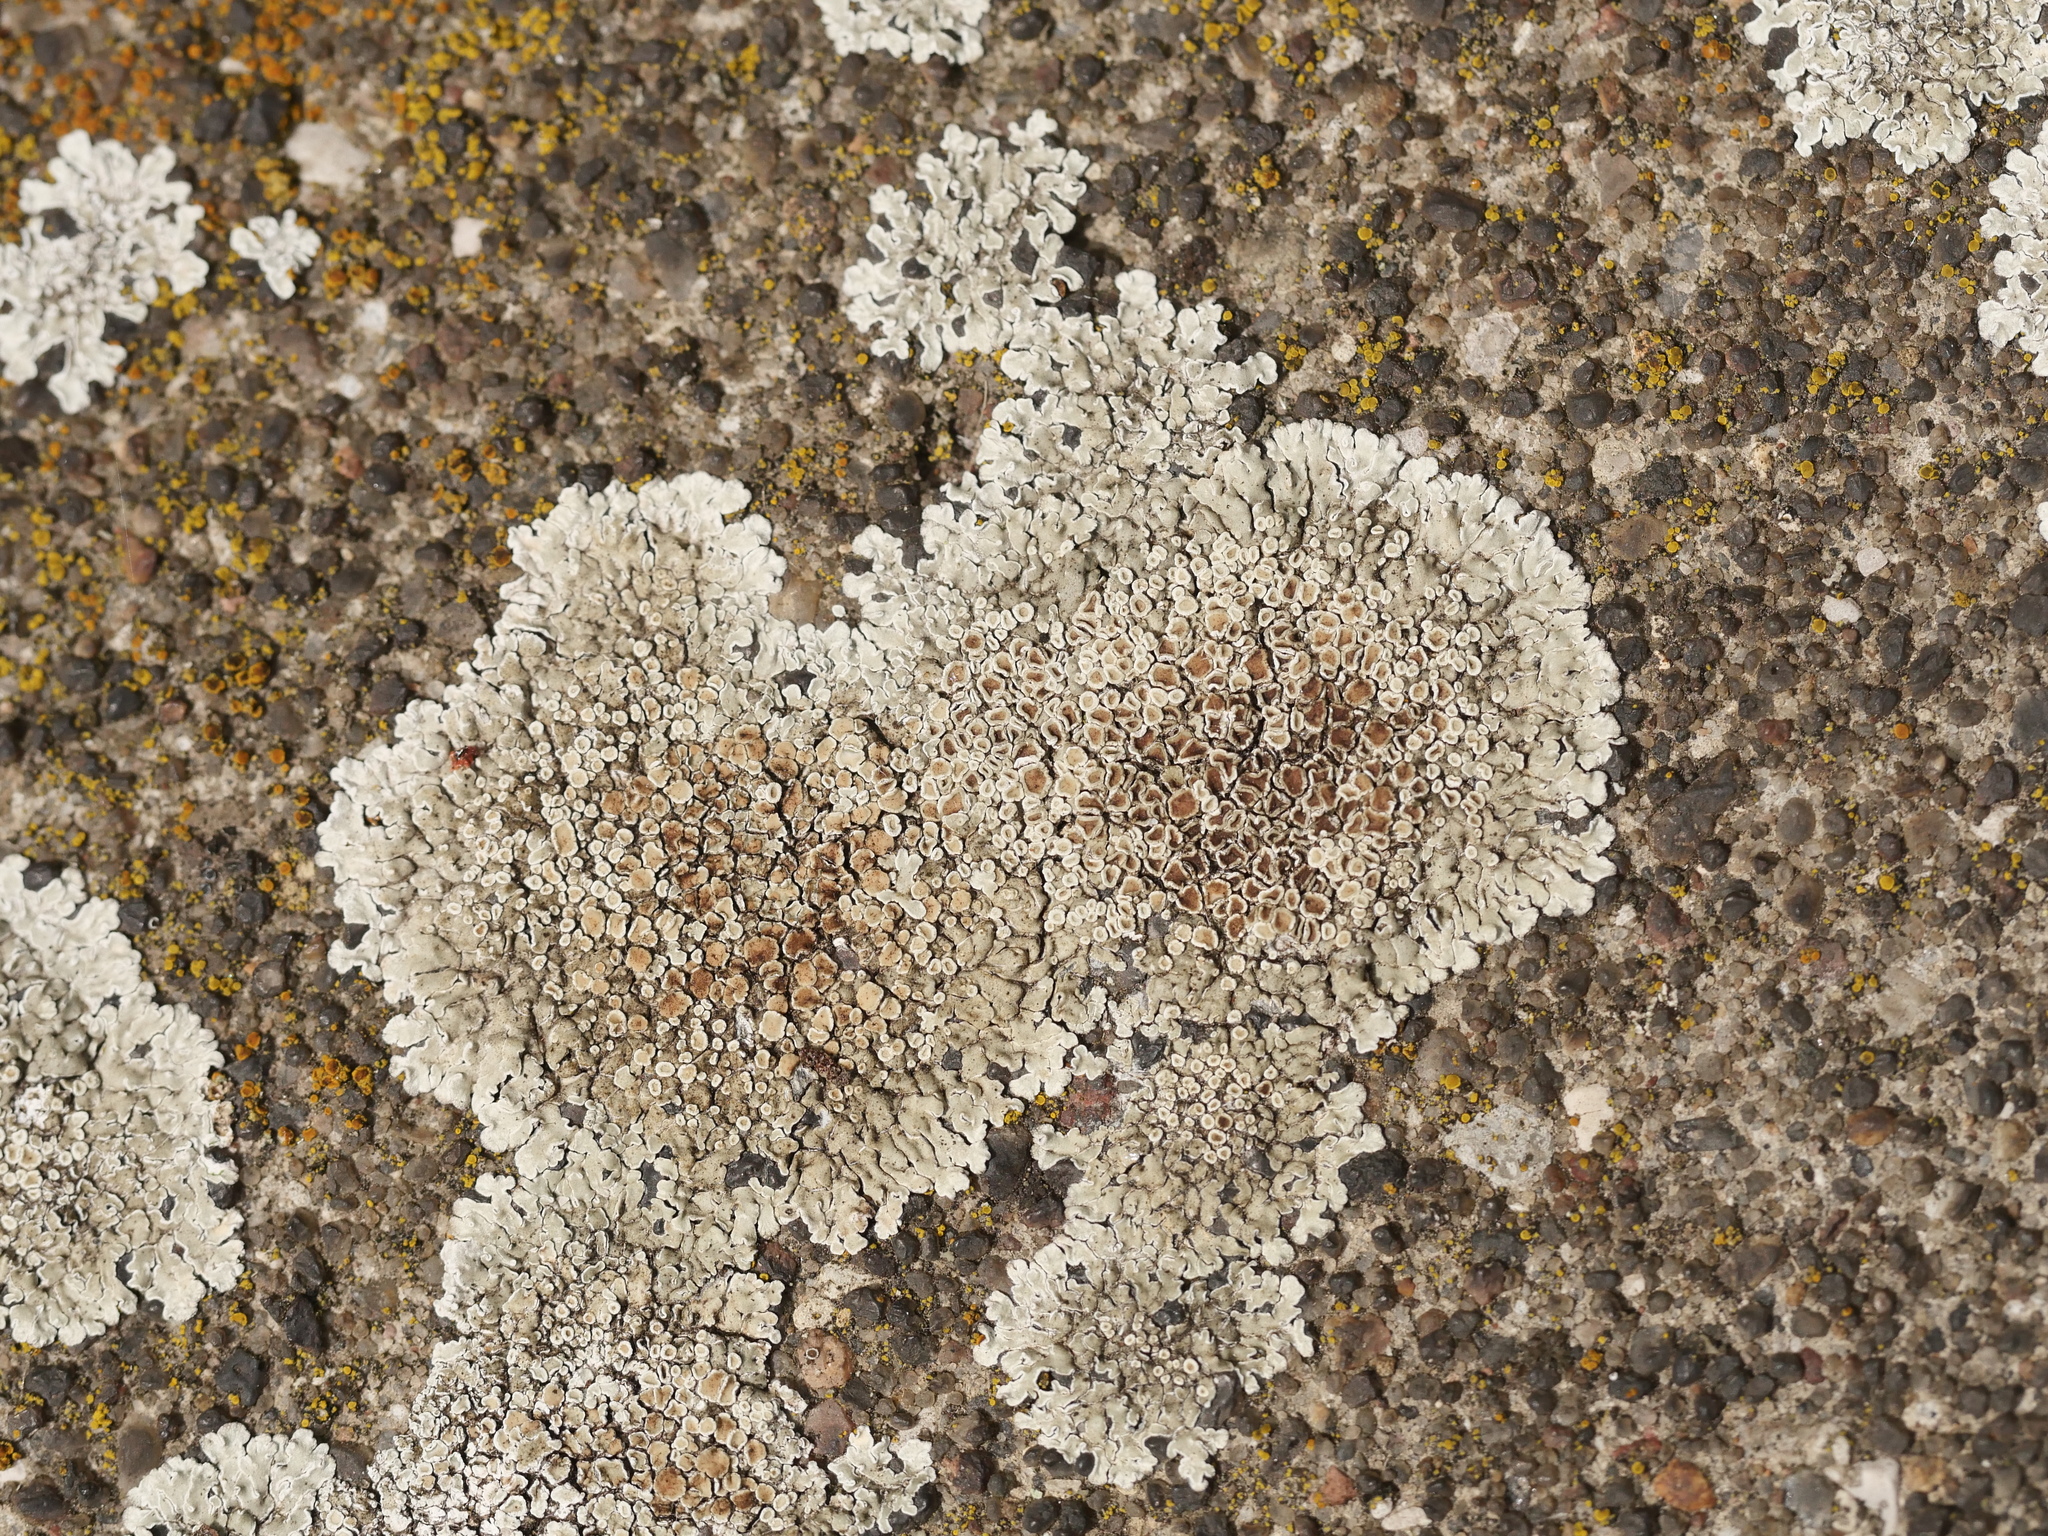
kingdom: Fungi
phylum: Ascomycota
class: Lecanoromycetes
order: Lecanorales
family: Lecanoraceae
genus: Protoparmeliopsis
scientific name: Protoparmeliopsis muralis
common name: Stonewall rim lichen
